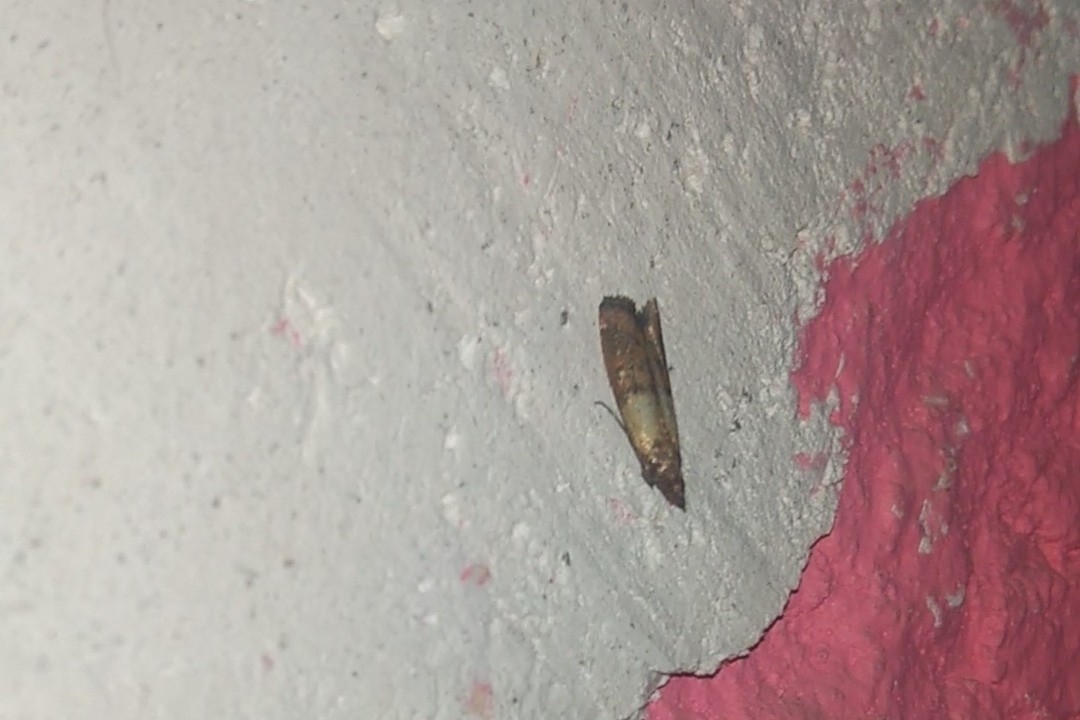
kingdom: Animalia
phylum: Arthropoda
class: Insecta
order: Lepidoptera
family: Pyralidae
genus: Plodia
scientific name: Plodia interpunctella
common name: Indian meal moth
